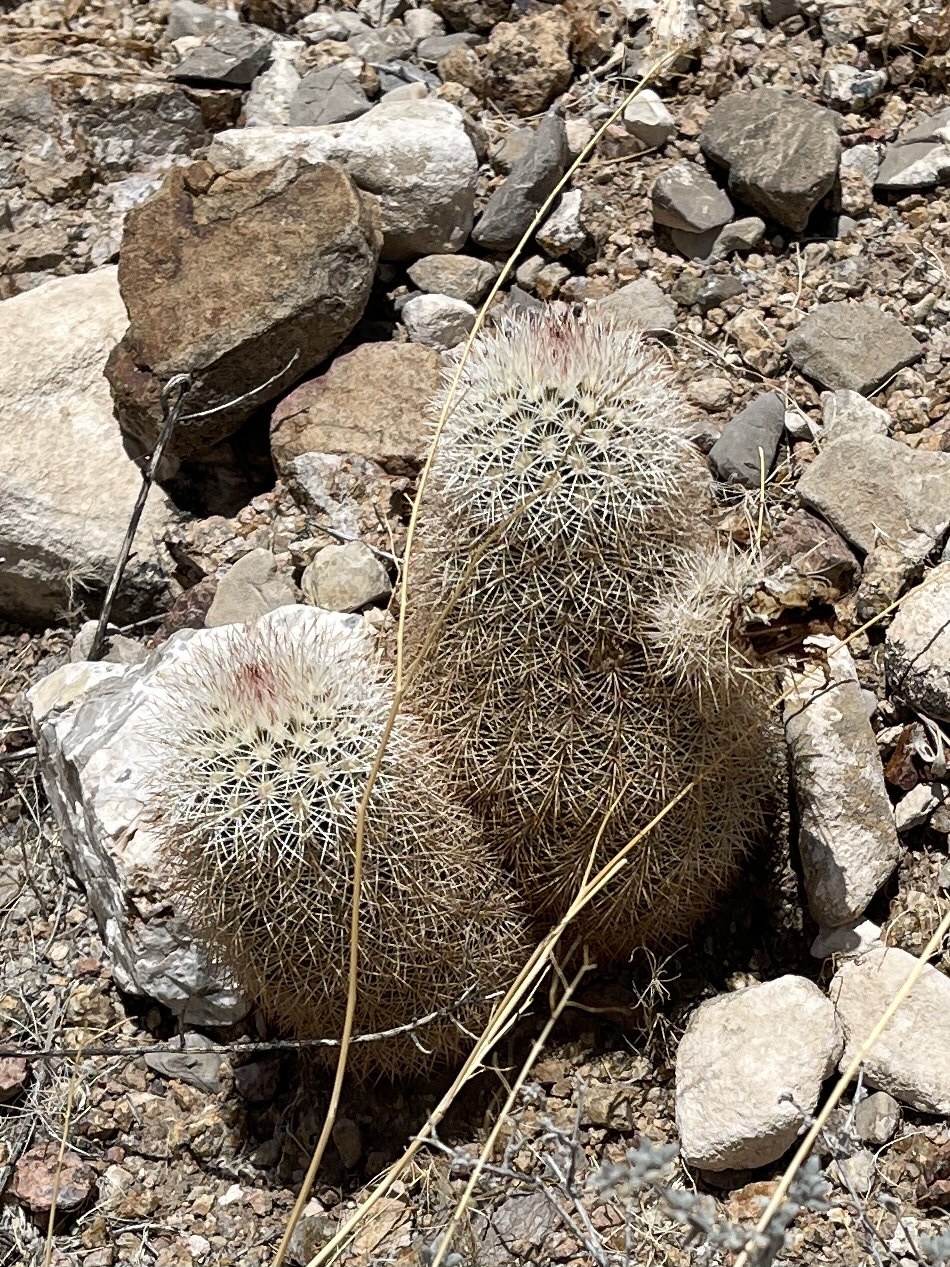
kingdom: Plantae
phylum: Tracheophyta
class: Magnoliopsida
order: Caryophyllales
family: Cactaceae
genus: Echinocereus
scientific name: Echinocereus dasyacanthus
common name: Spiny hedgehog cactus
